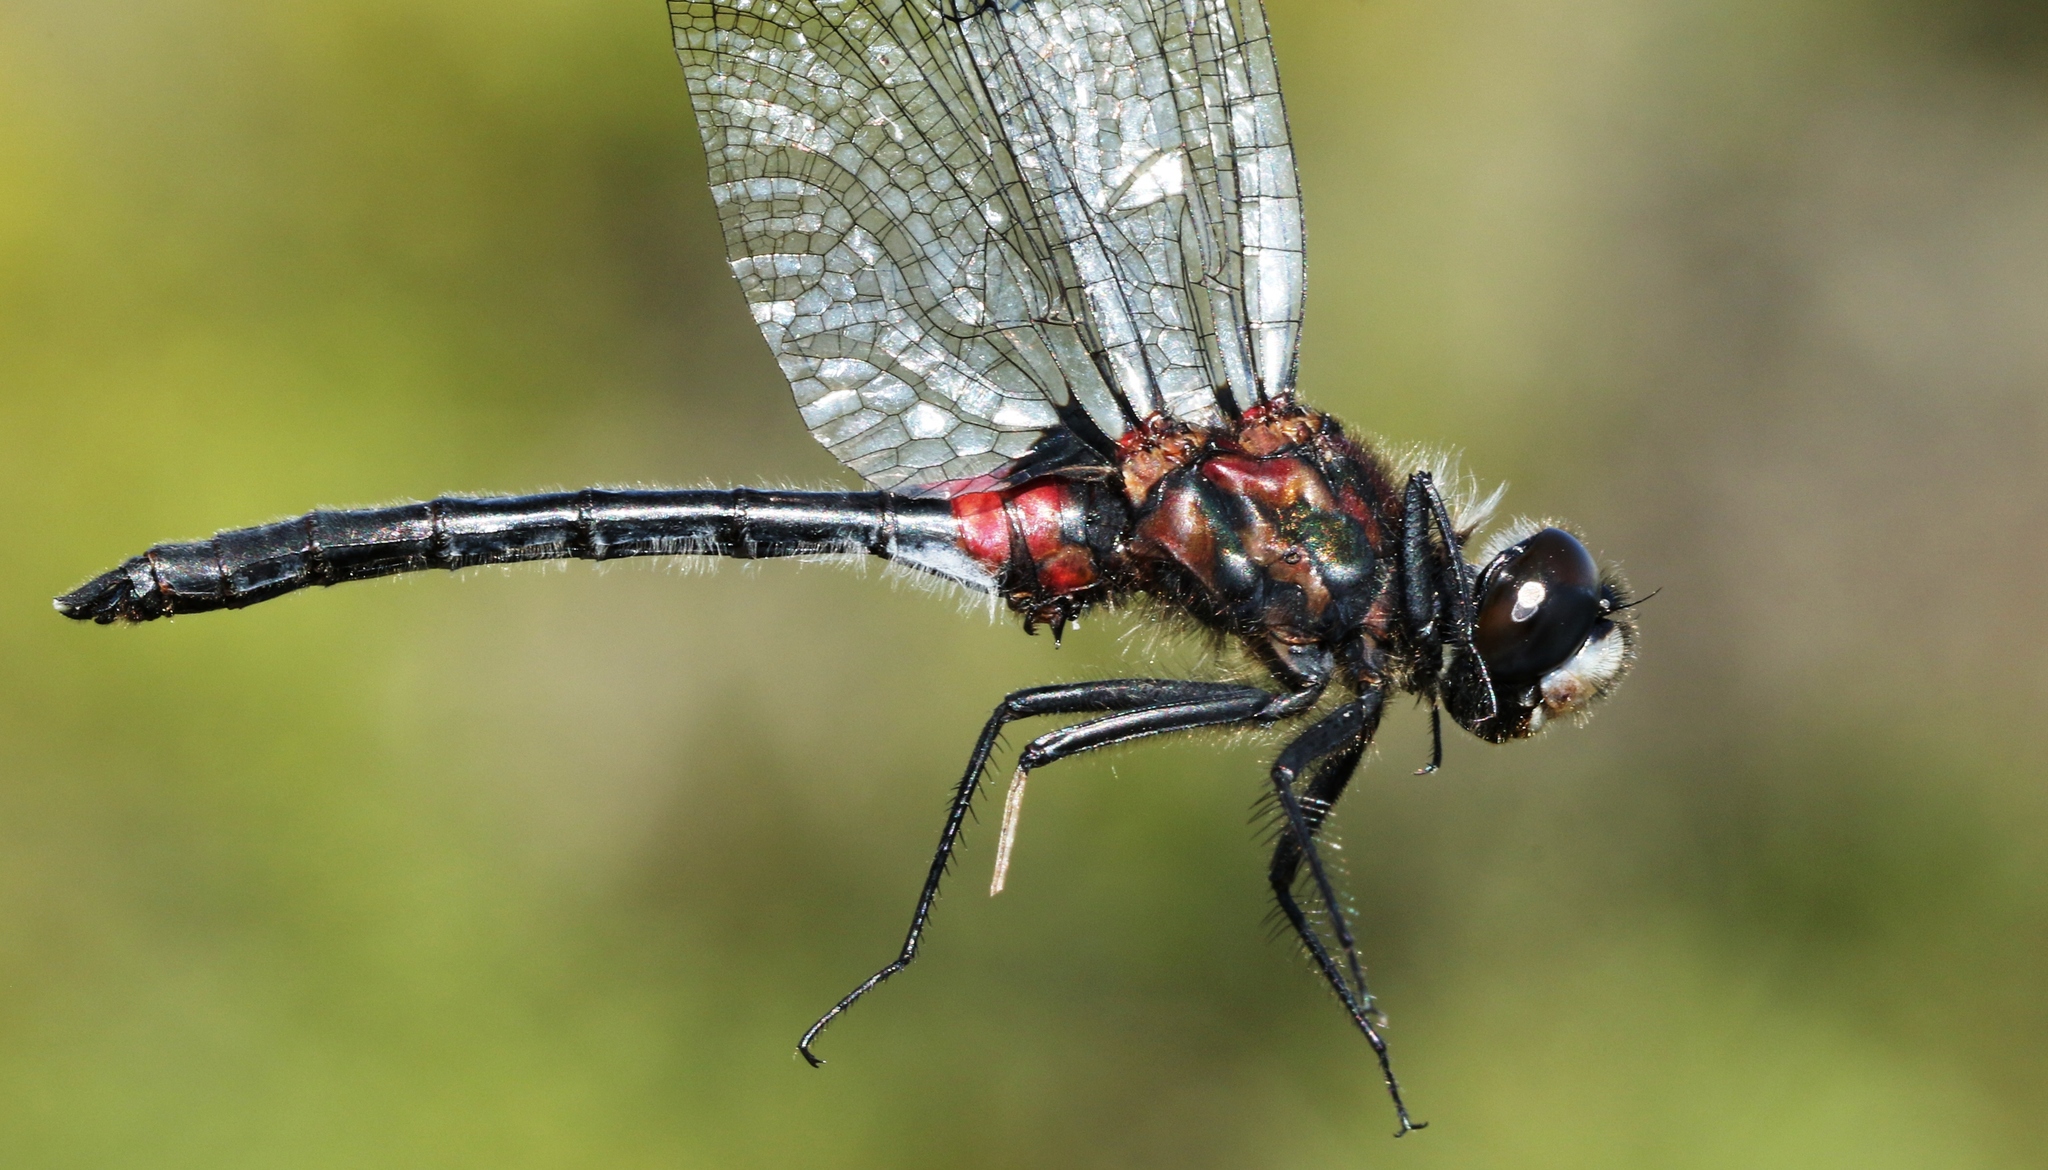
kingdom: Animalia
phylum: Arthropoda
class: Insecta
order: Odonata
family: Libellulidae
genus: Leucorrhinia
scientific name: Leucorrhinia glacialis
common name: Crimson-ringed whiteface
